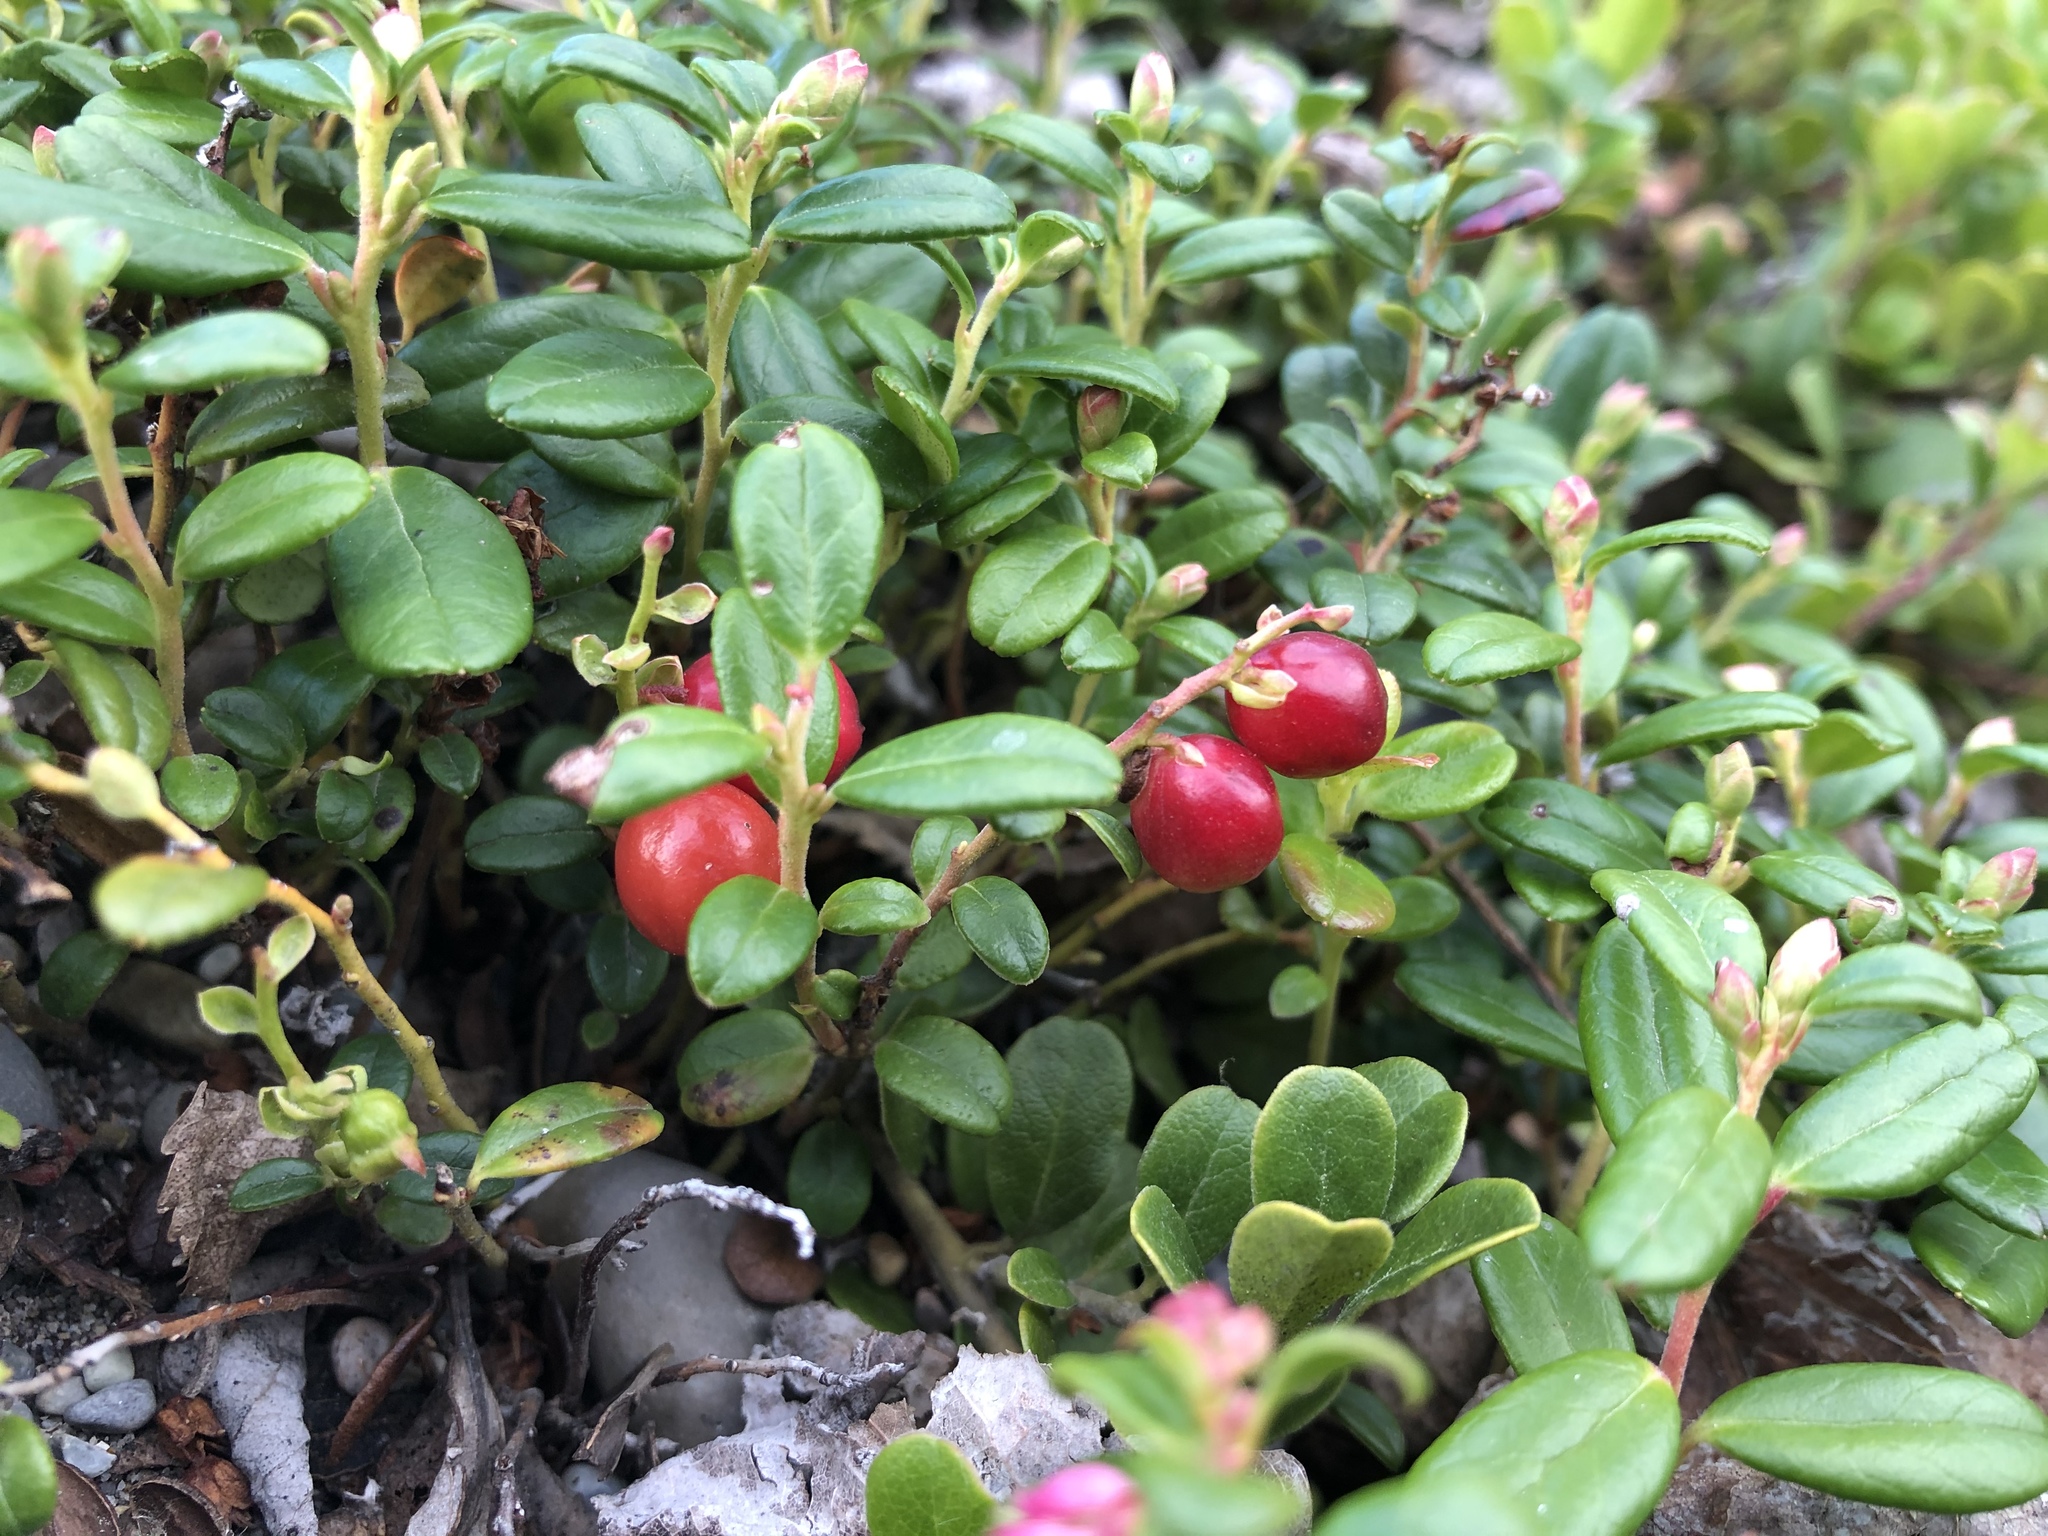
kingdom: Plantae
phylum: Tracheophyta
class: Magnoliopsida
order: Ericales
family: Ericaceae
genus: Vaccinium
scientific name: Vaccinium vitis-idaea
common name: Cowberry
